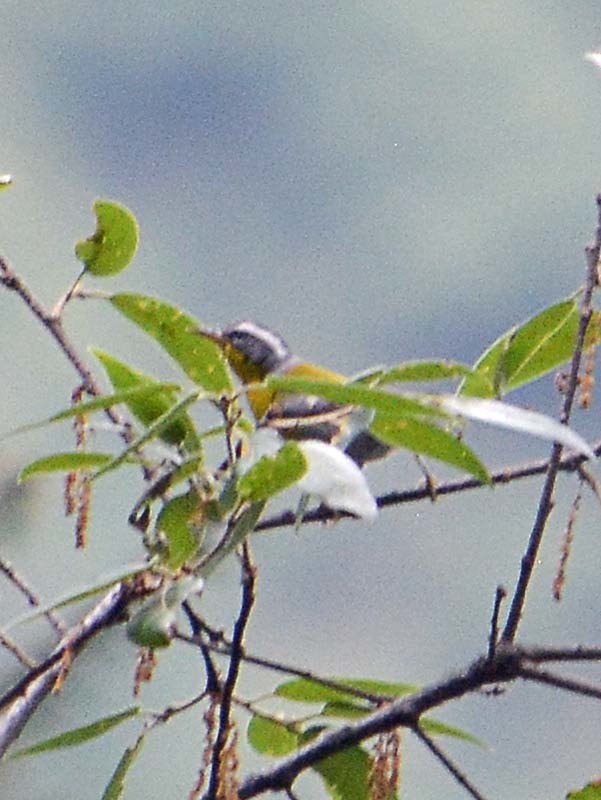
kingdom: Animalia
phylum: Chordata
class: Aves
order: Passeriformes
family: Parulidae
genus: Oreothlypis
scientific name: Oreothlypis superciliosa
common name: Crescent-chested warbler
